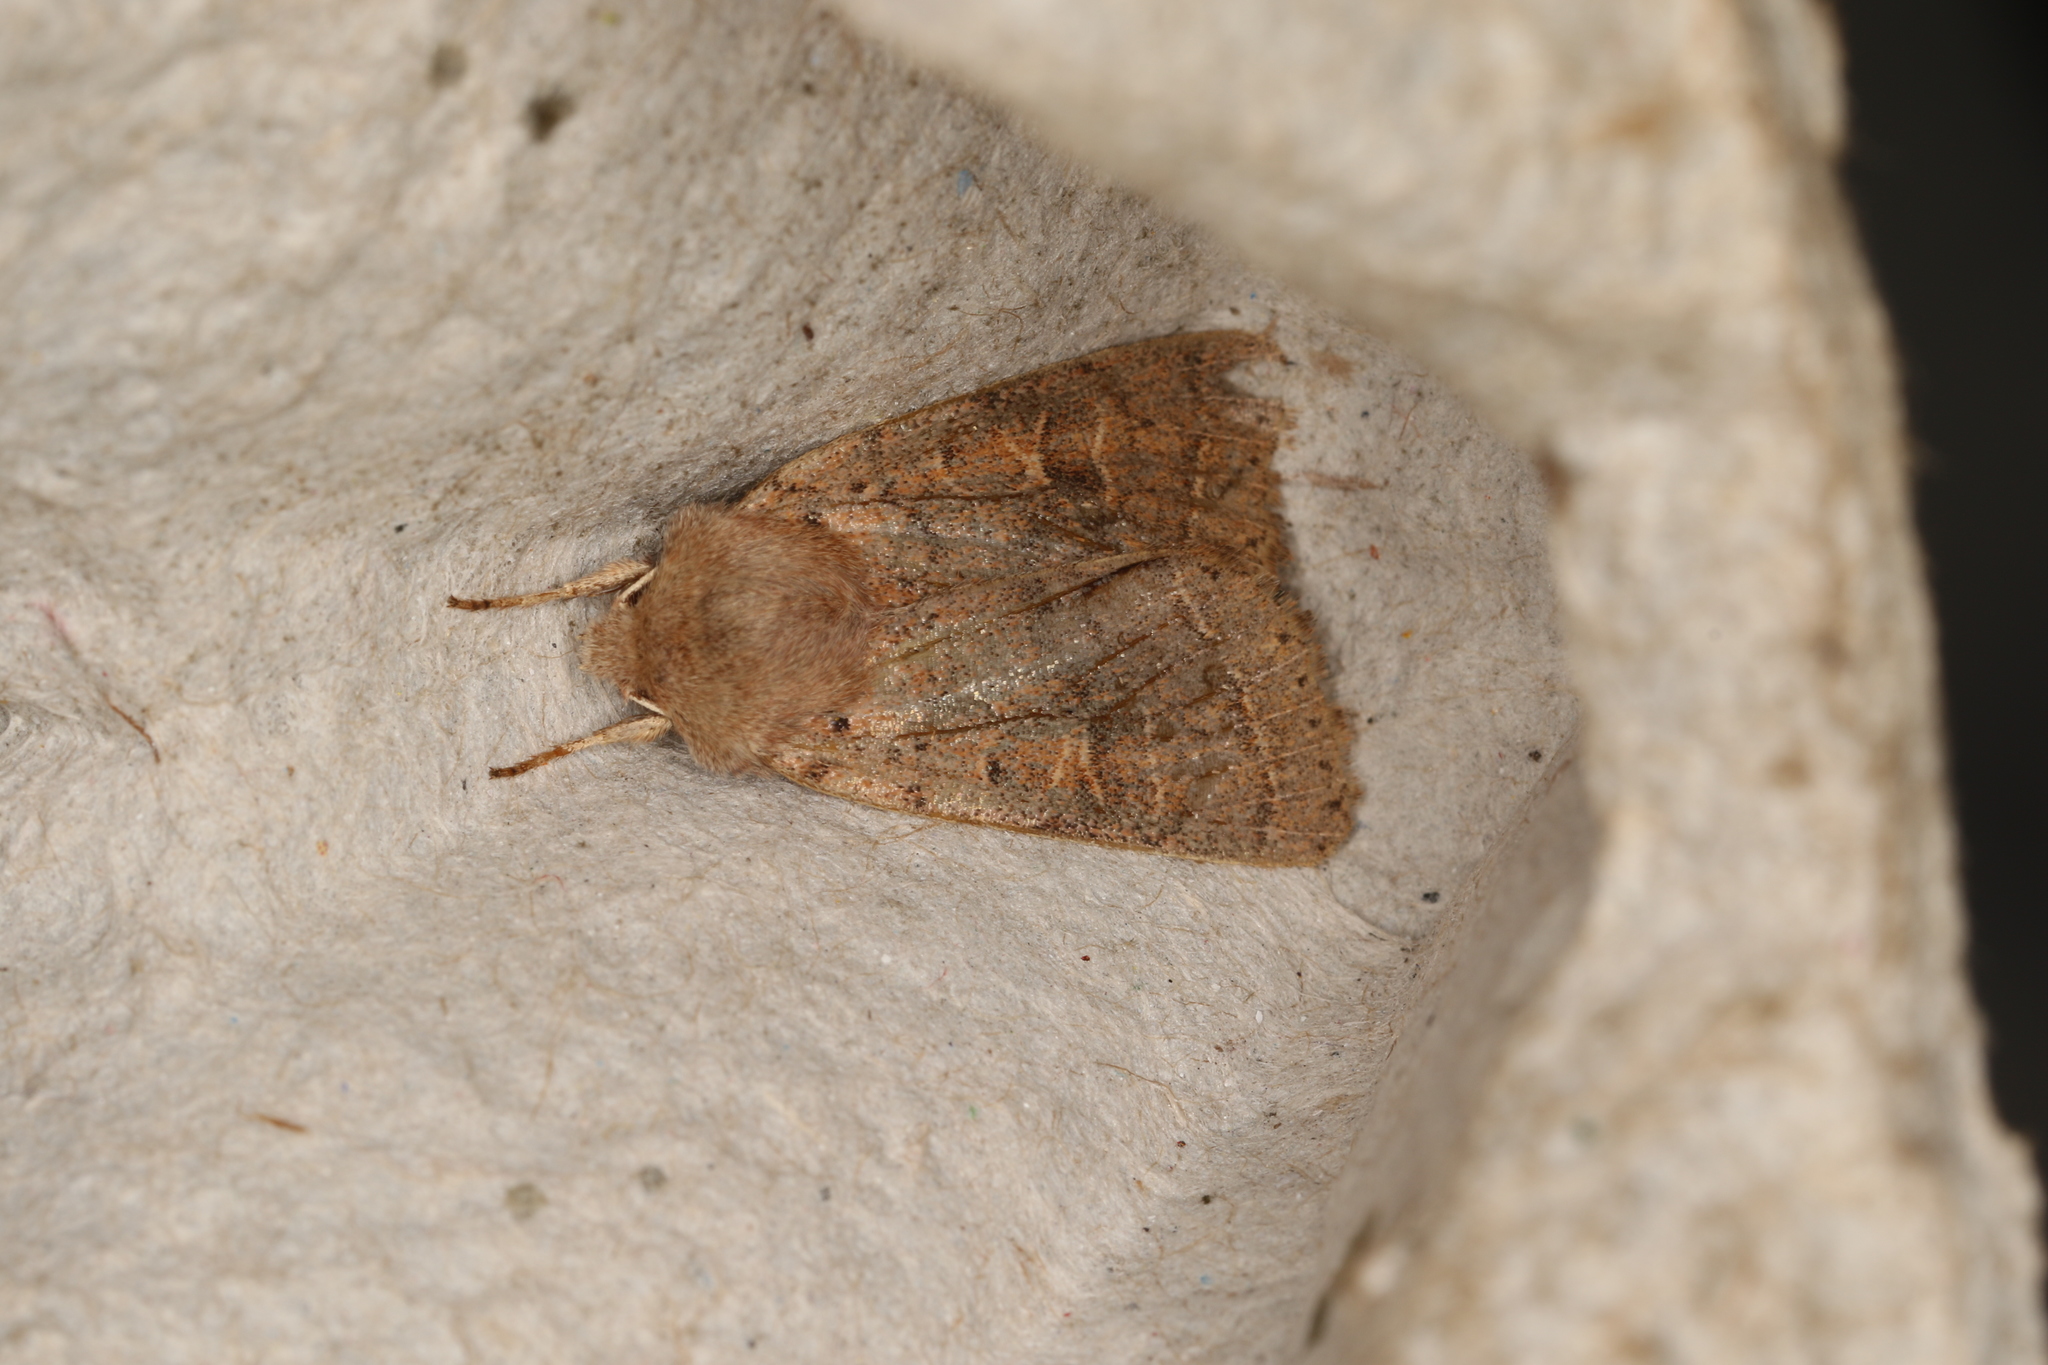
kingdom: Animalia
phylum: Arthropoda
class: Insecta
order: Lepidoptera
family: Noctuidae
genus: Orthosia
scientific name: Orthosia cerasi
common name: Common quaker
